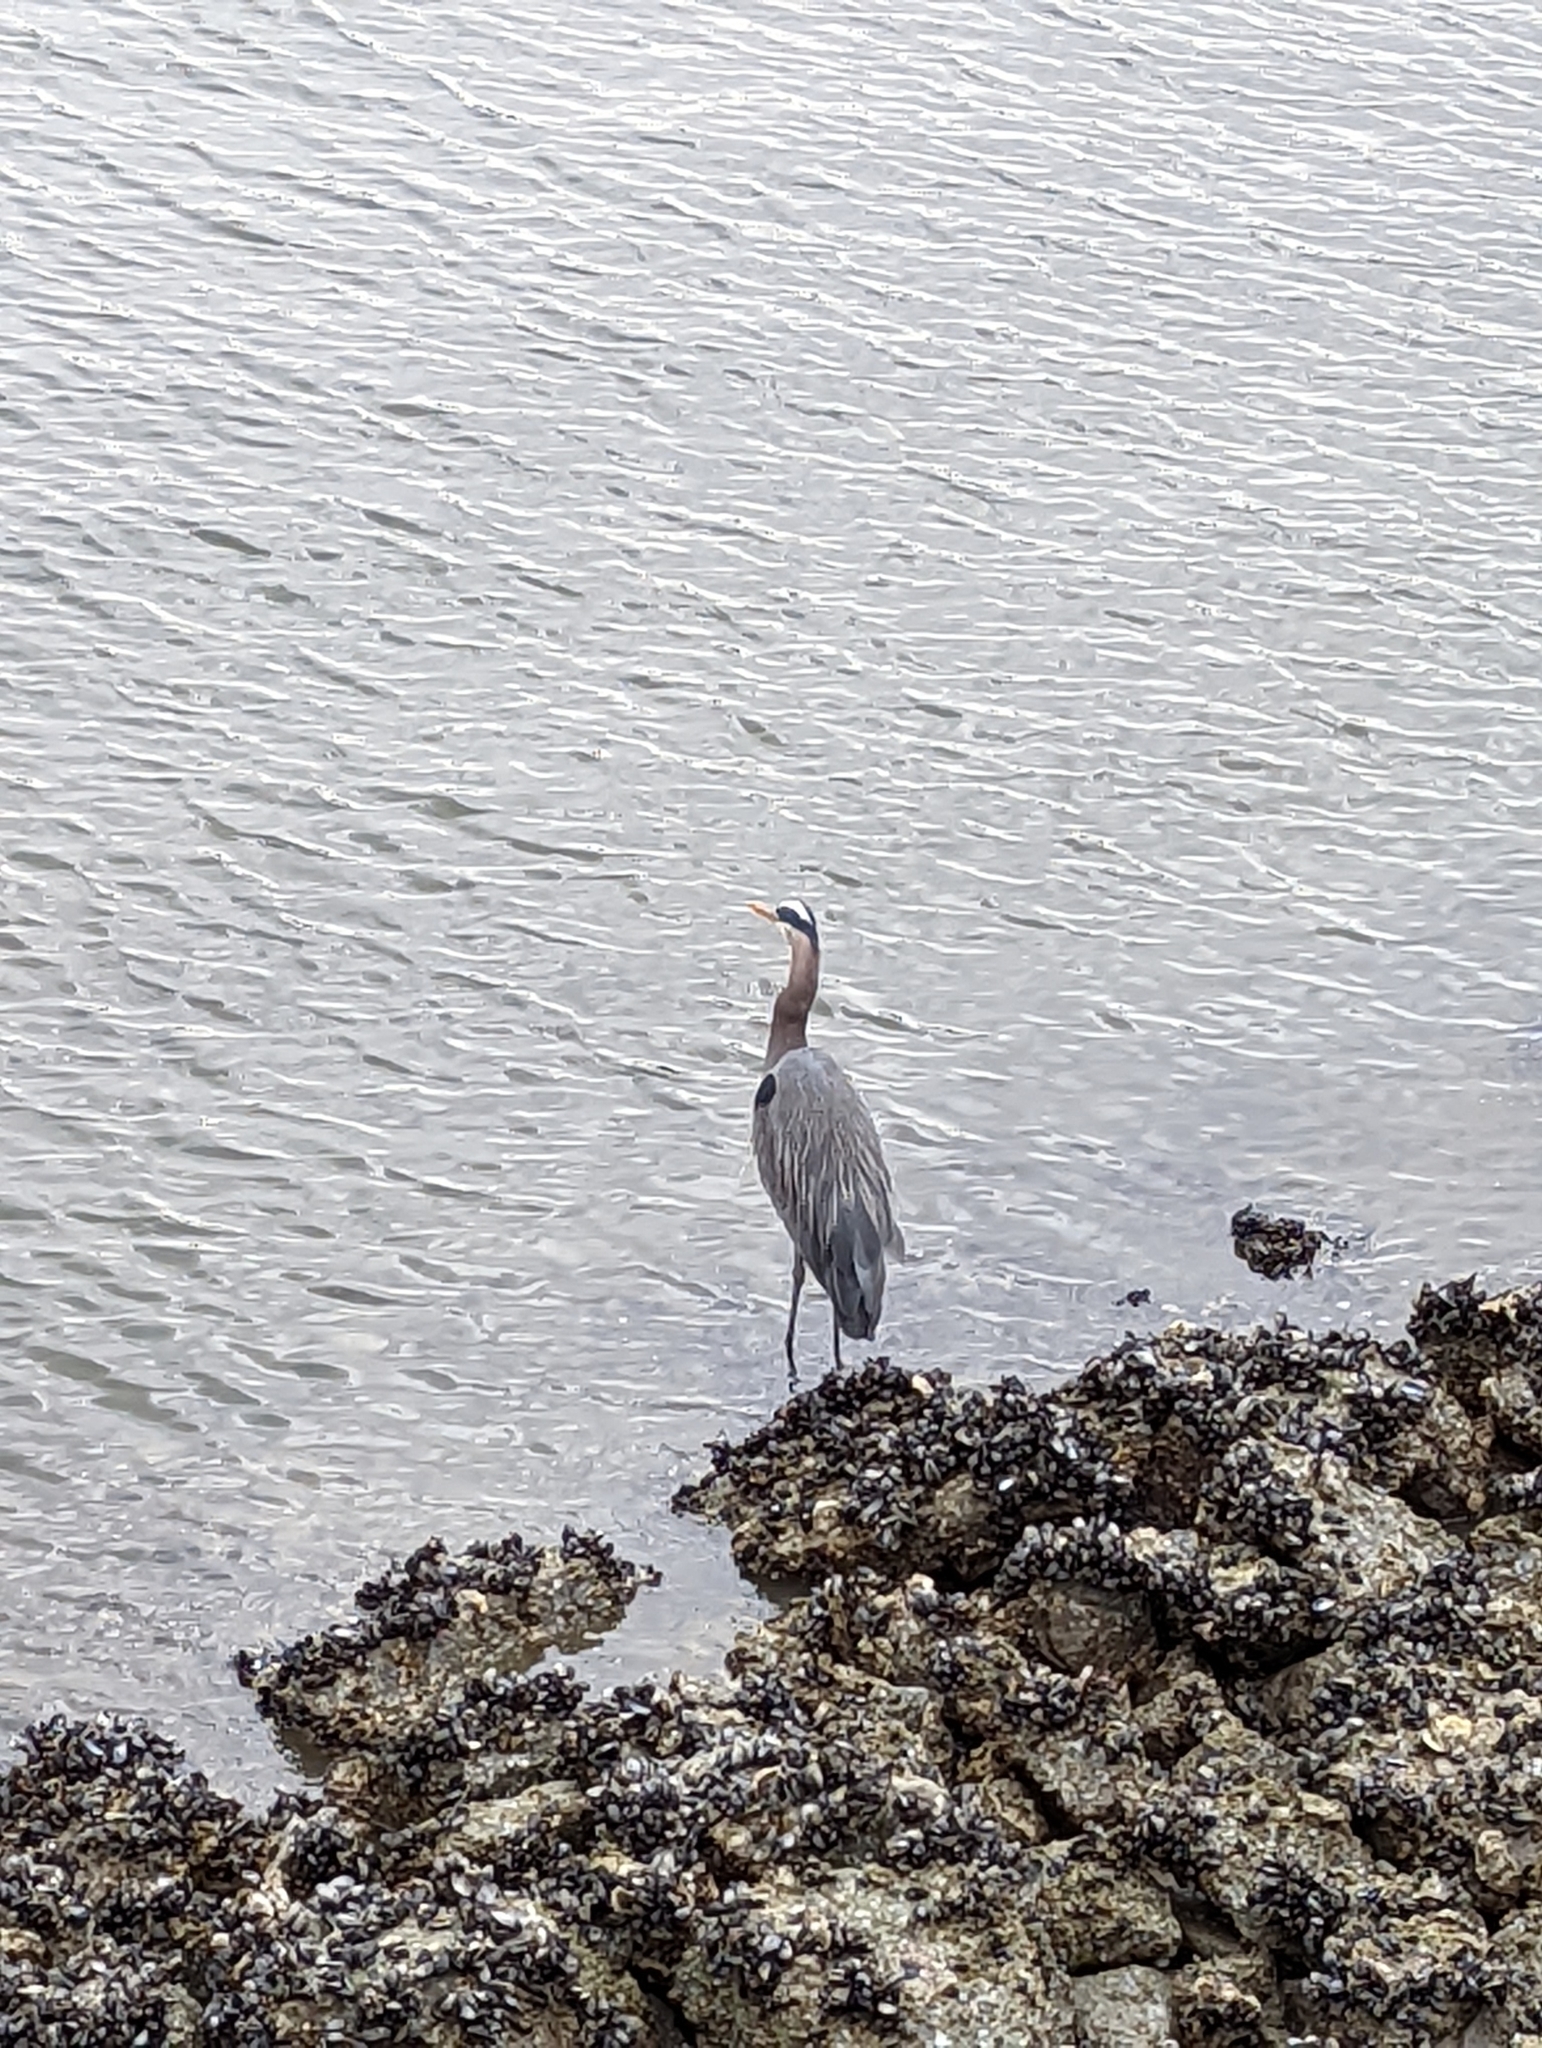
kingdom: Animalia
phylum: Chordata
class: Aves
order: Pelecaniformes
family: Ardeidae
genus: Ardea
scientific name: Ardea herodias
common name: Great blue heron
